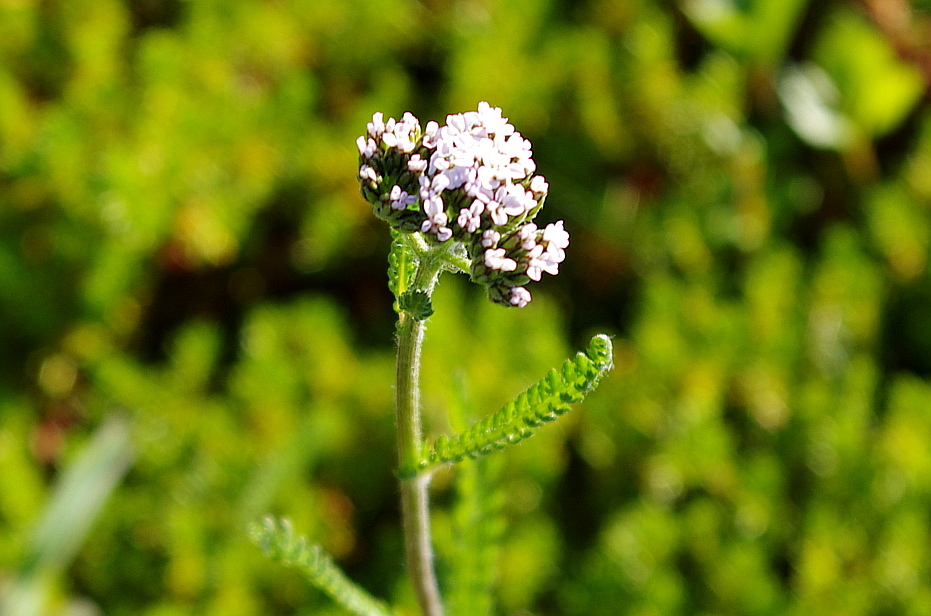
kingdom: Plantae
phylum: Tracheophyta
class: Magnoliopsida
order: Asterales
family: Asteraceae
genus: Achillea
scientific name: Achillea millefolium
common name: Yarrow
